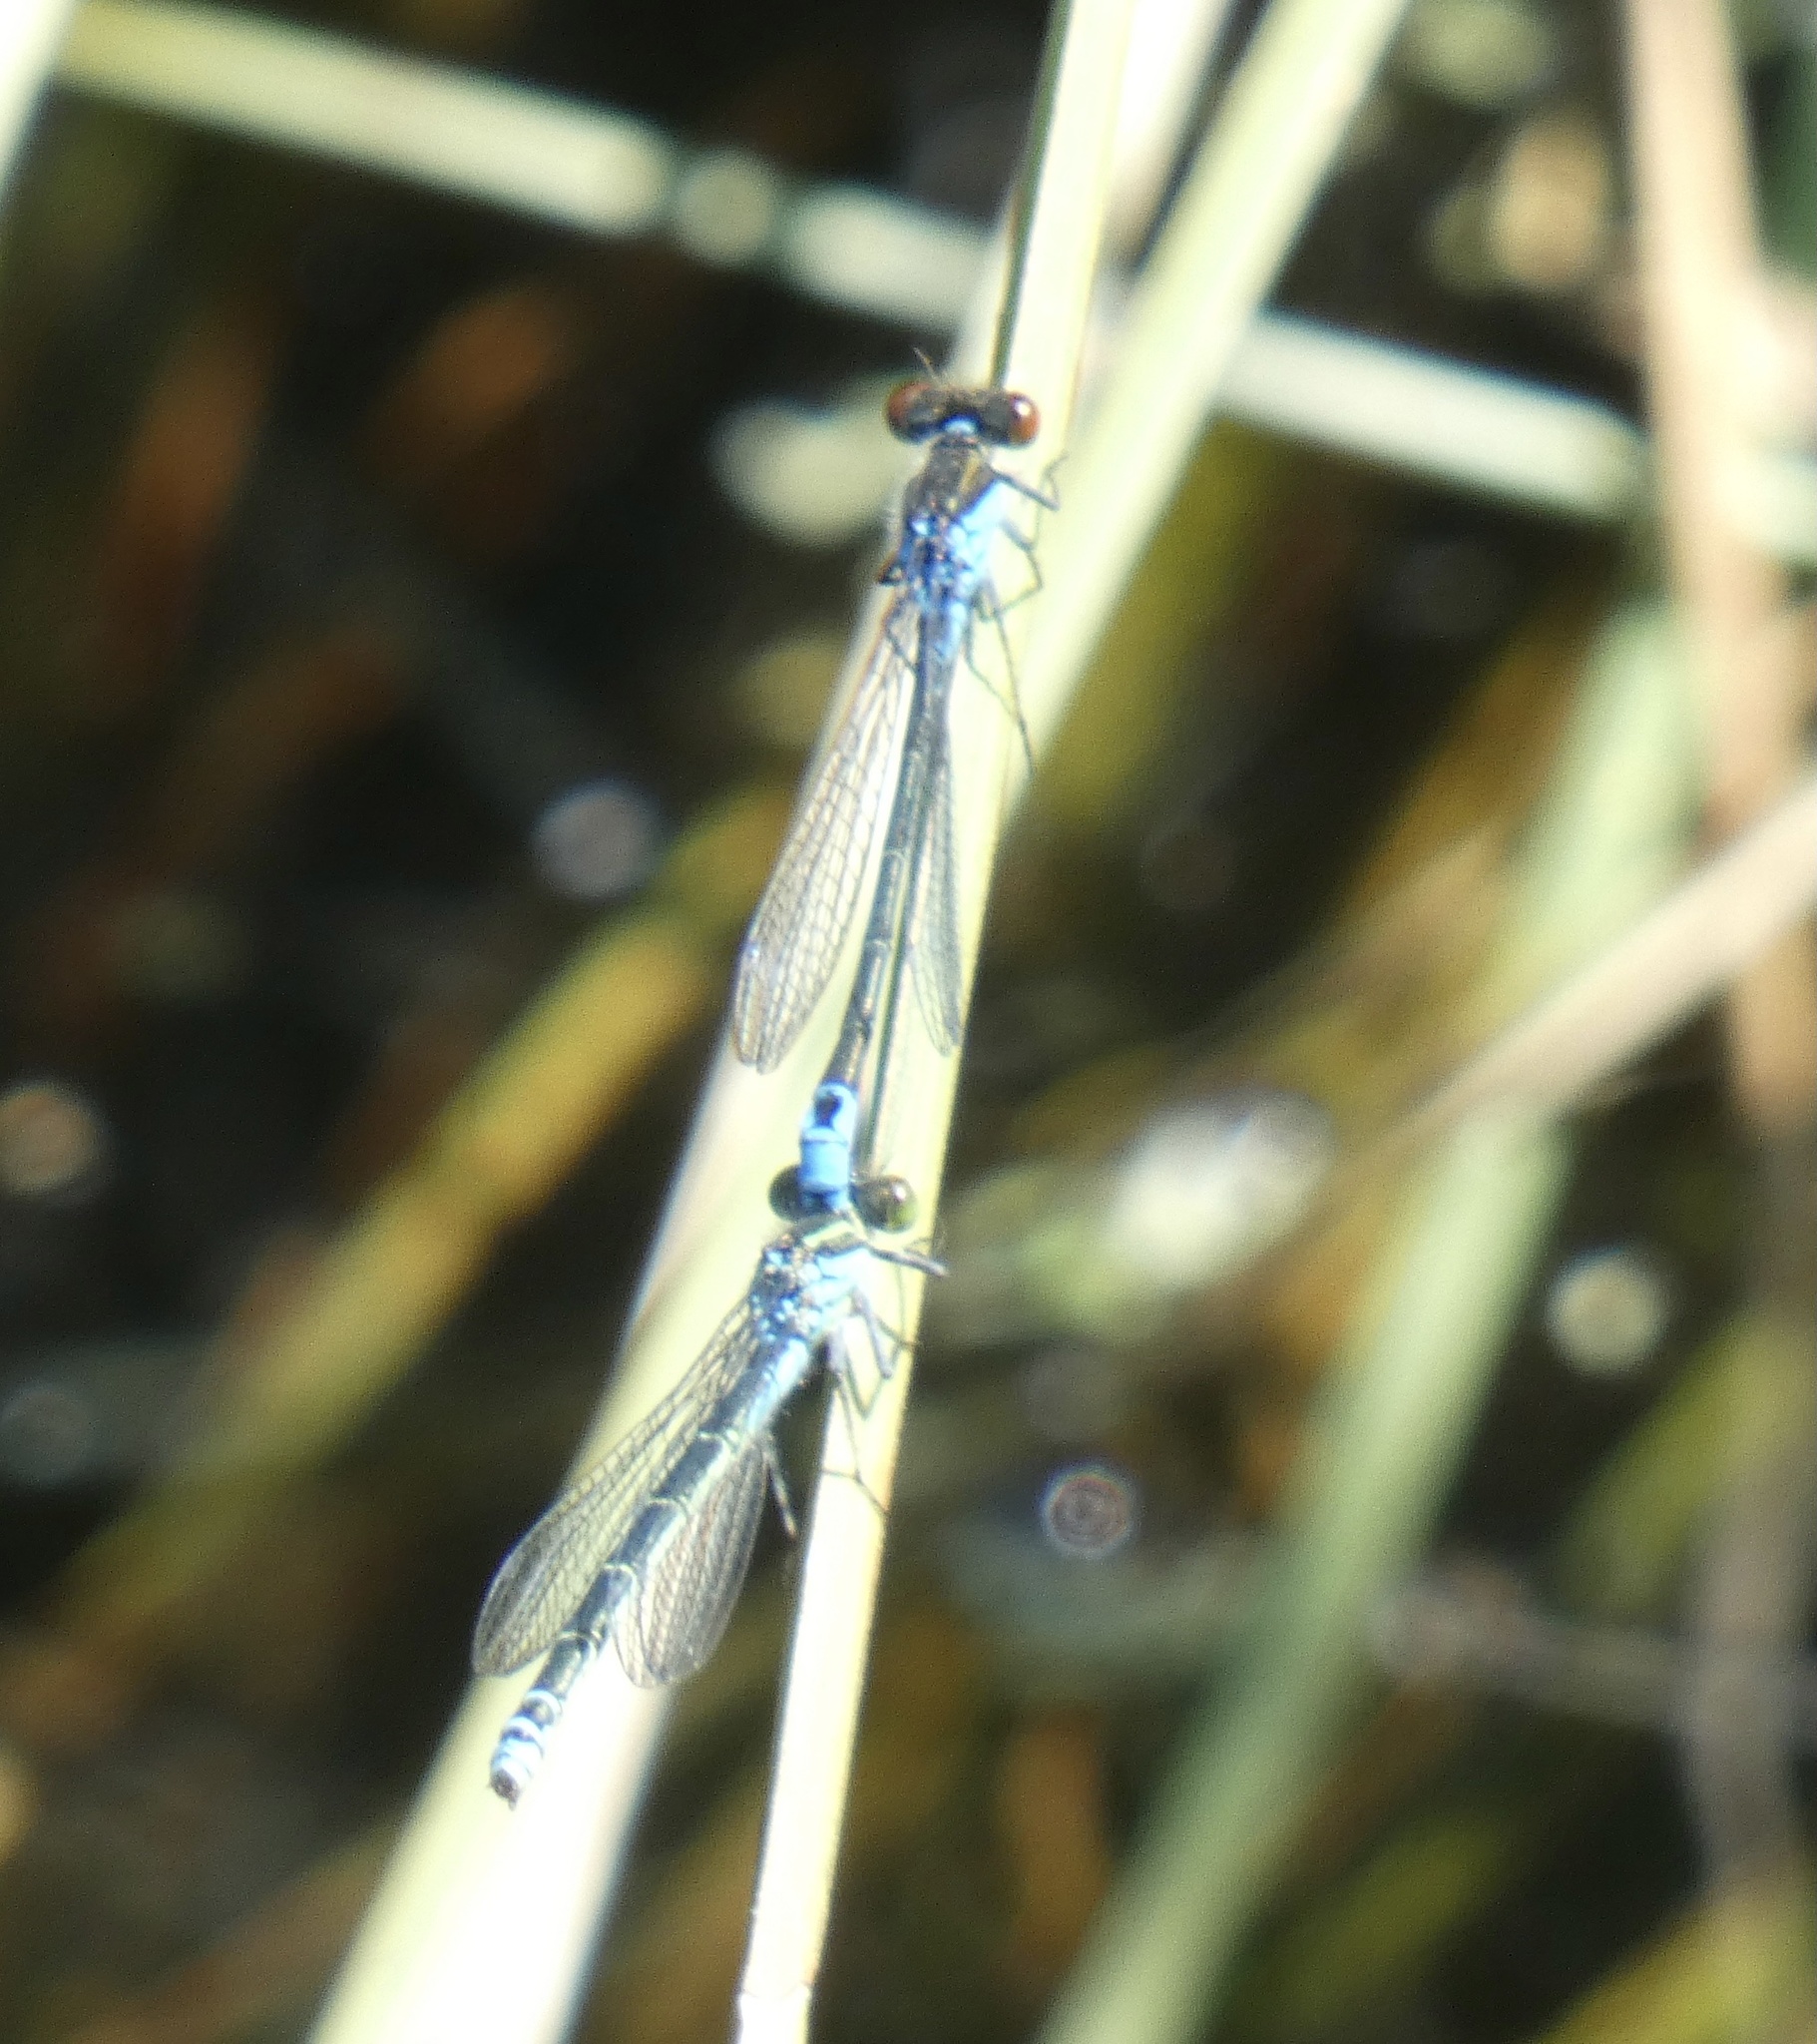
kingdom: Animalia
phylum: Arthropoda
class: Insecta
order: Odonata
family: Coenagrionidae
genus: Erythromma
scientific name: Erythromma viridulum
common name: Small red-eyed damselfly
